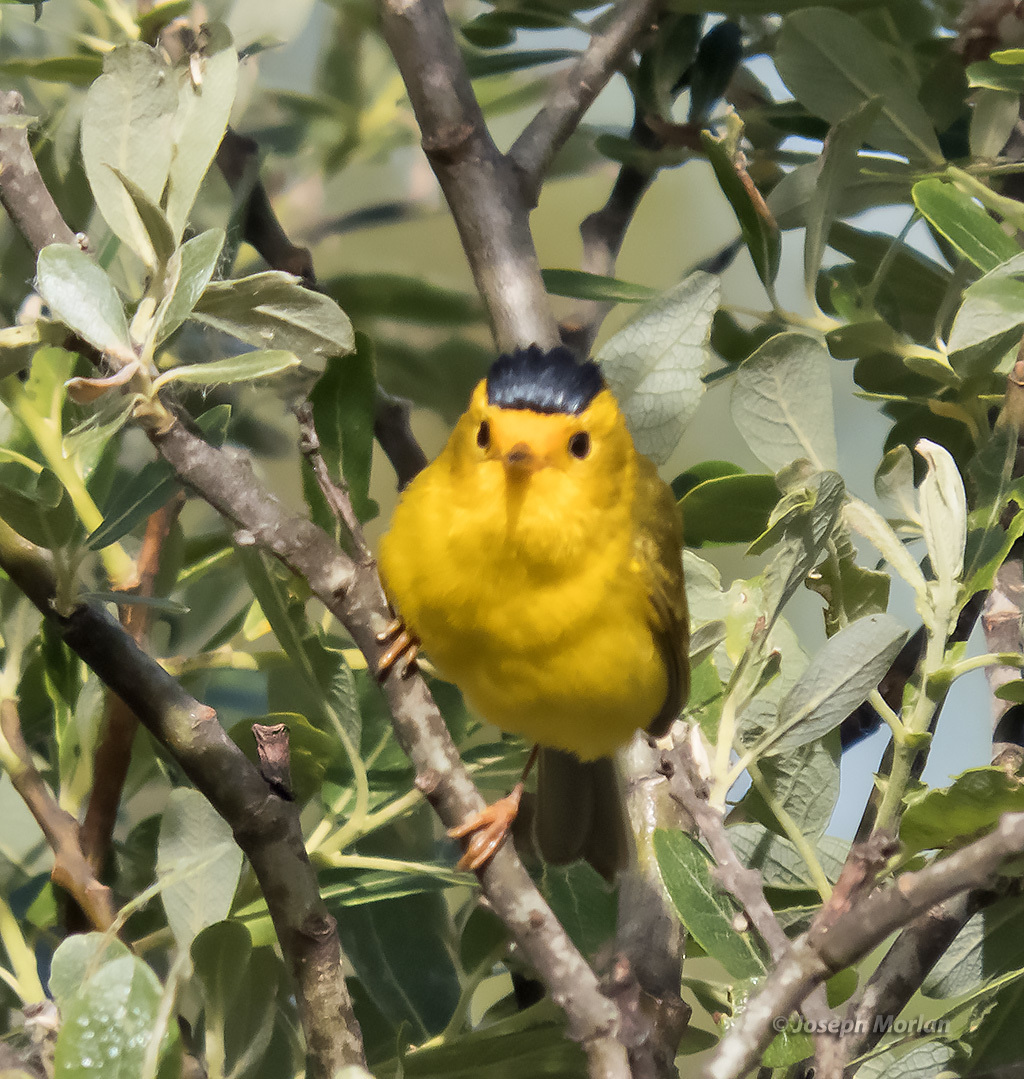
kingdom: Animalia
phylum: Chordata
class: Aves
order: Passeriformes
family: Parulidae
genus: Cardellina
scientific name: Cardellina pusilla
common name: Wilson's warbler
